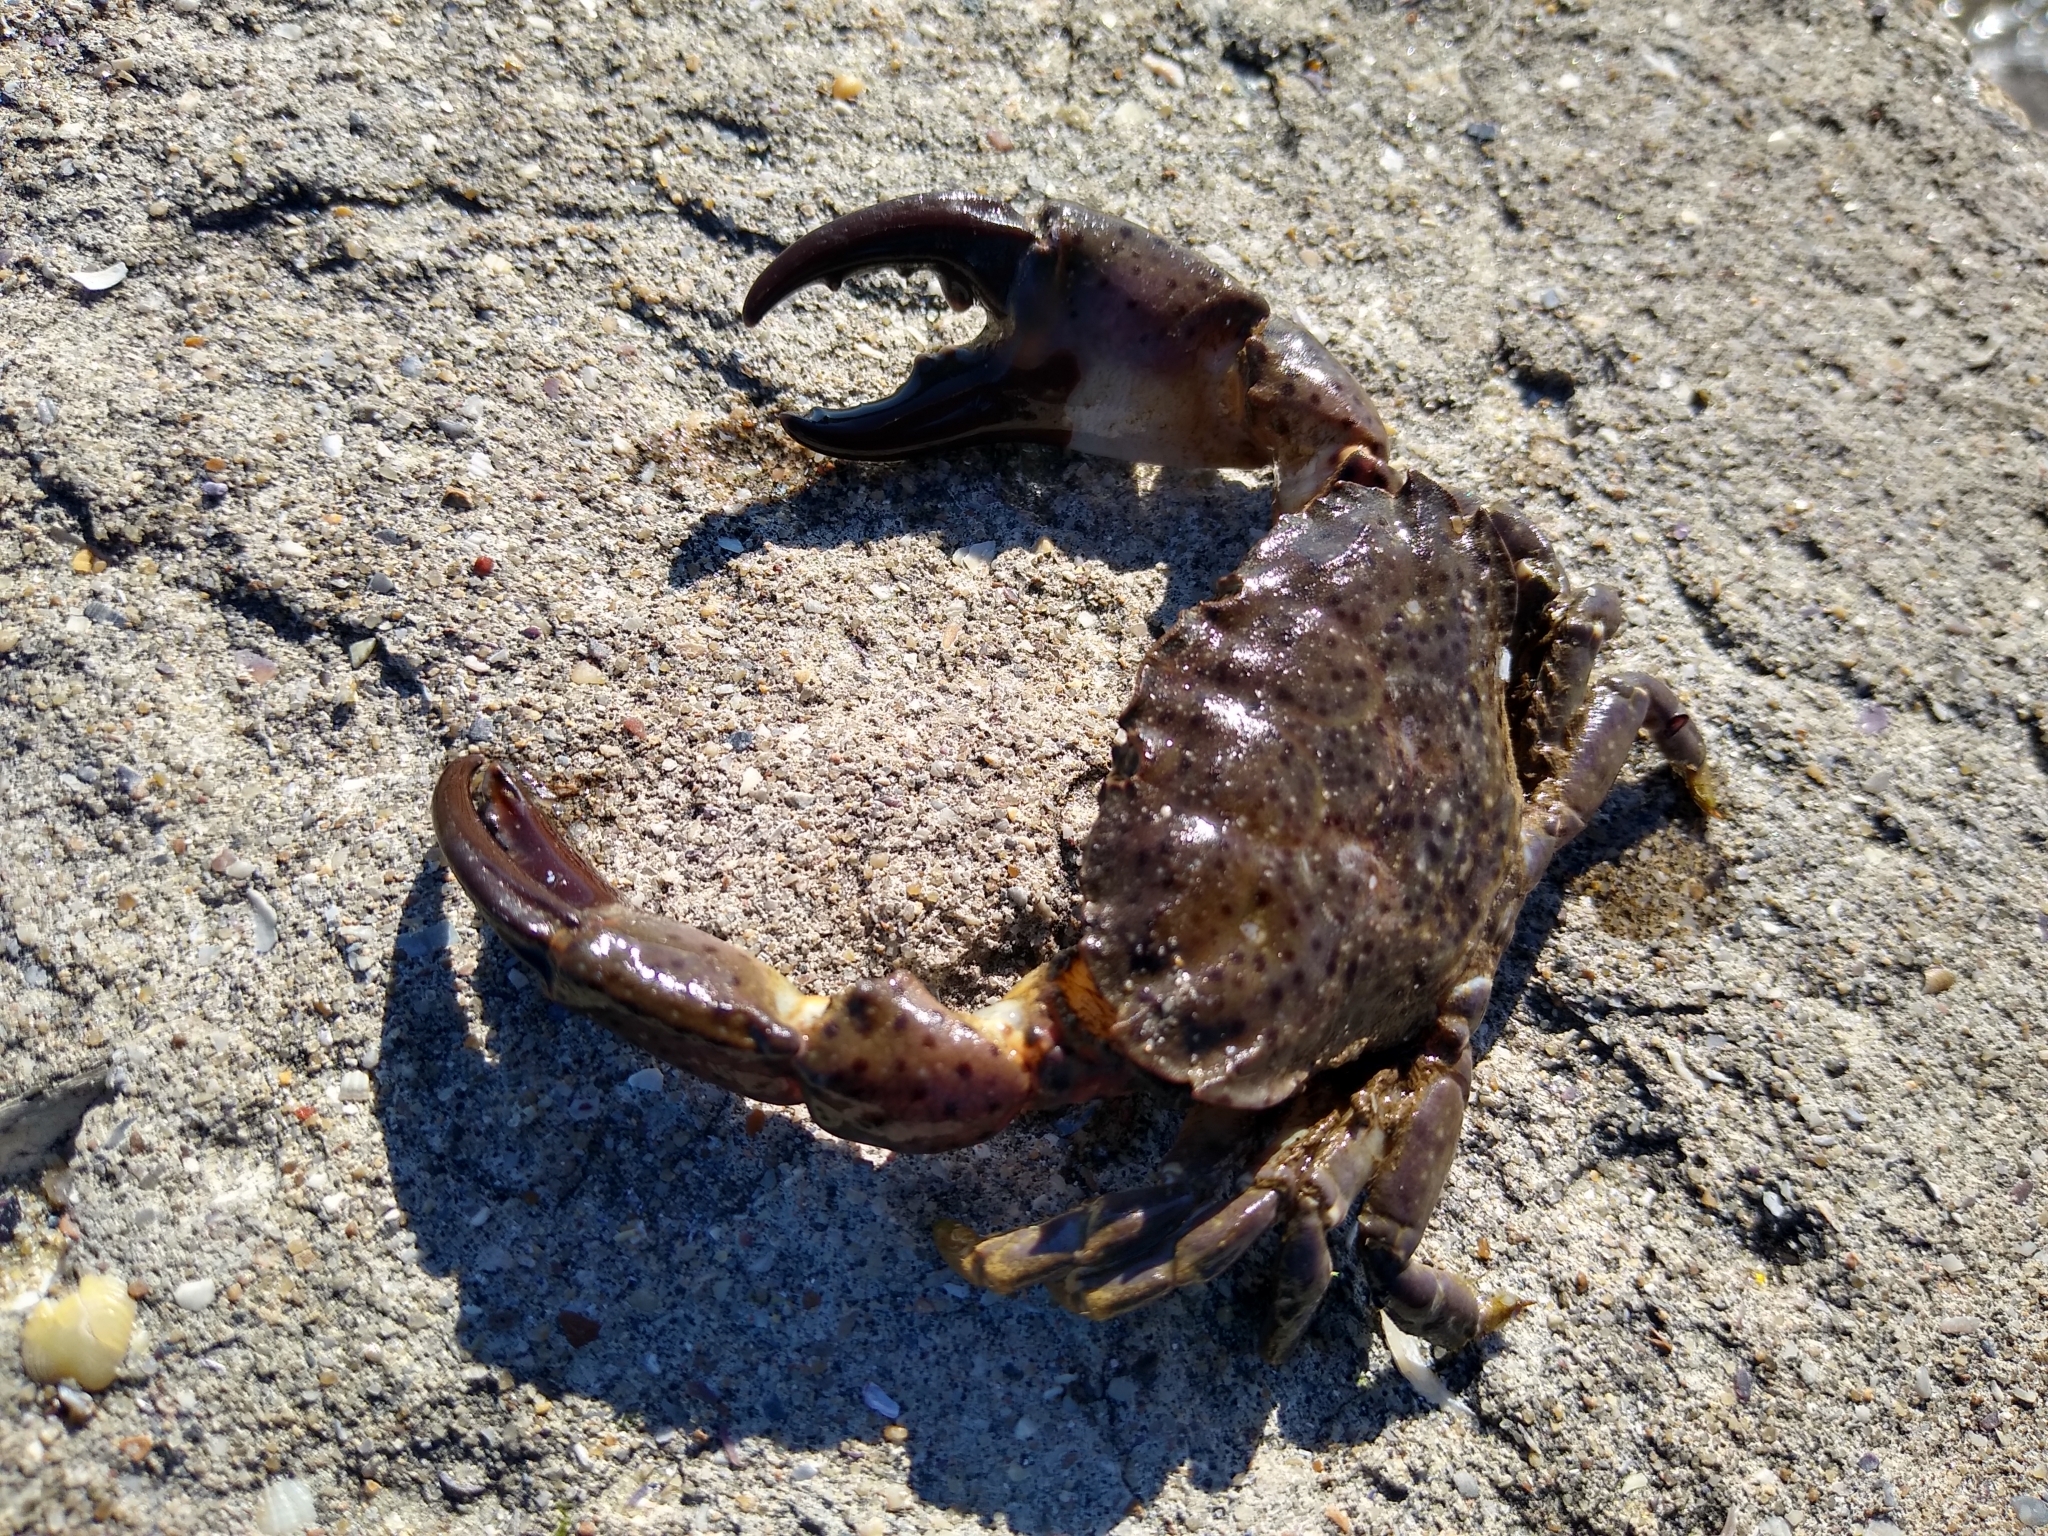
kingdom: Animalia
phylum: Arthropoda
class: Malacostraca
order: Decapoda
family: Xanthidae
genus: Xantho
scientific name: Xantho poressa
